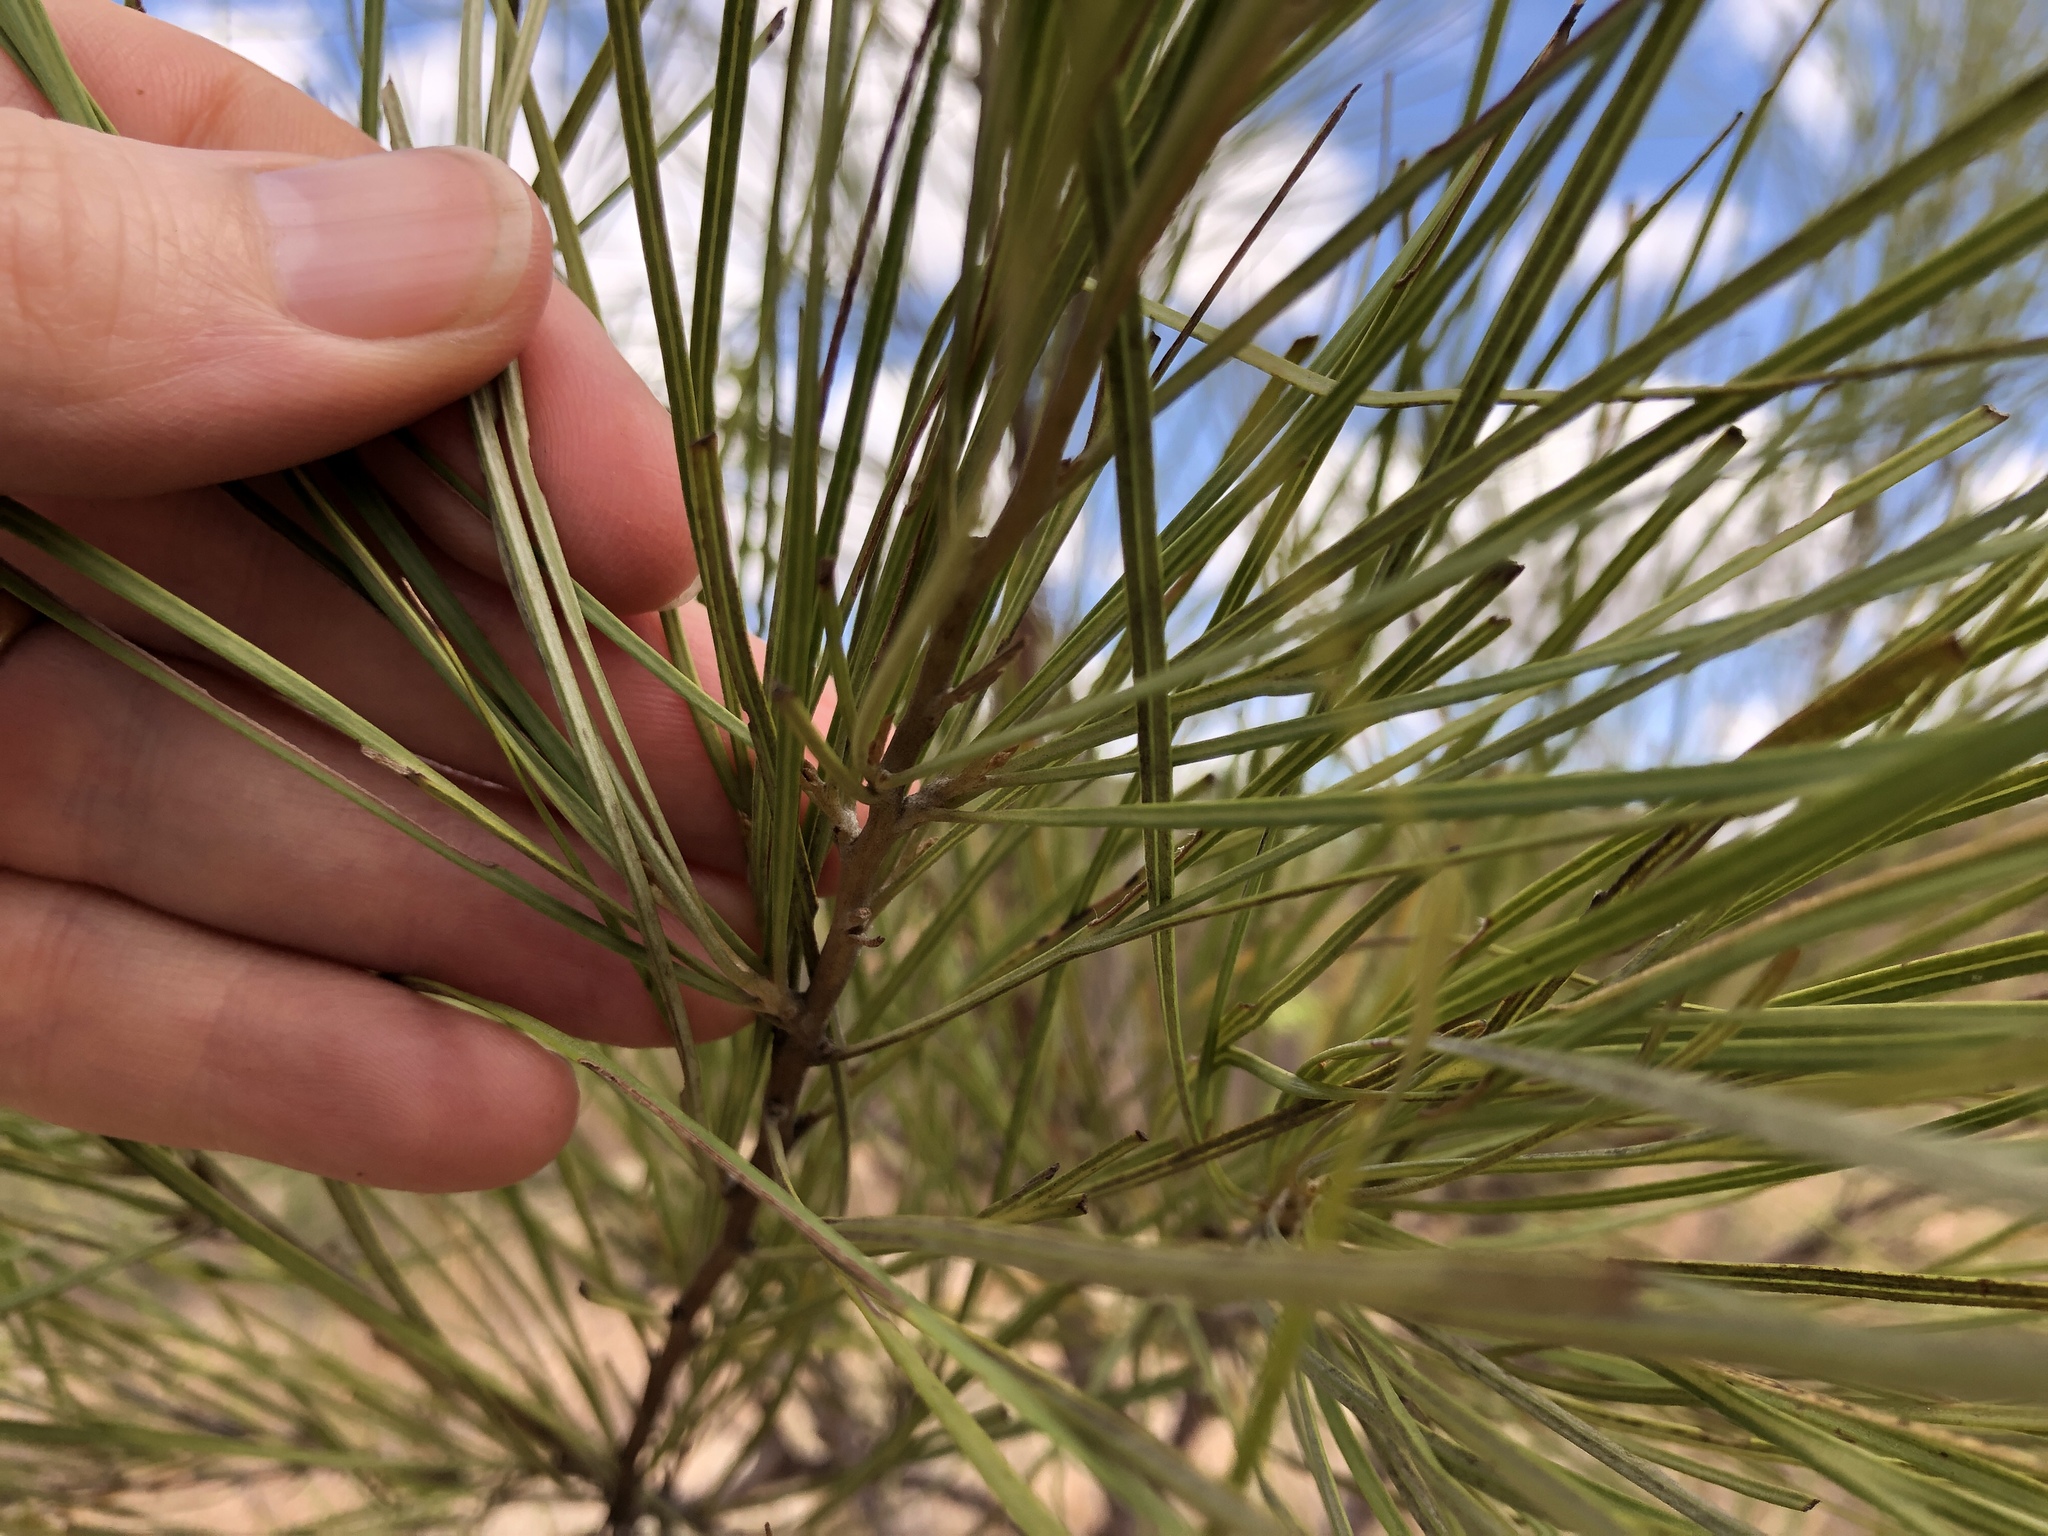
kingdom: Plantae
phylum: Tracheophyta
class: Magnoliopsida
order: Proteales
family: Proteaceae
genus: Grevillea
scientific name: Grevillea parallela
